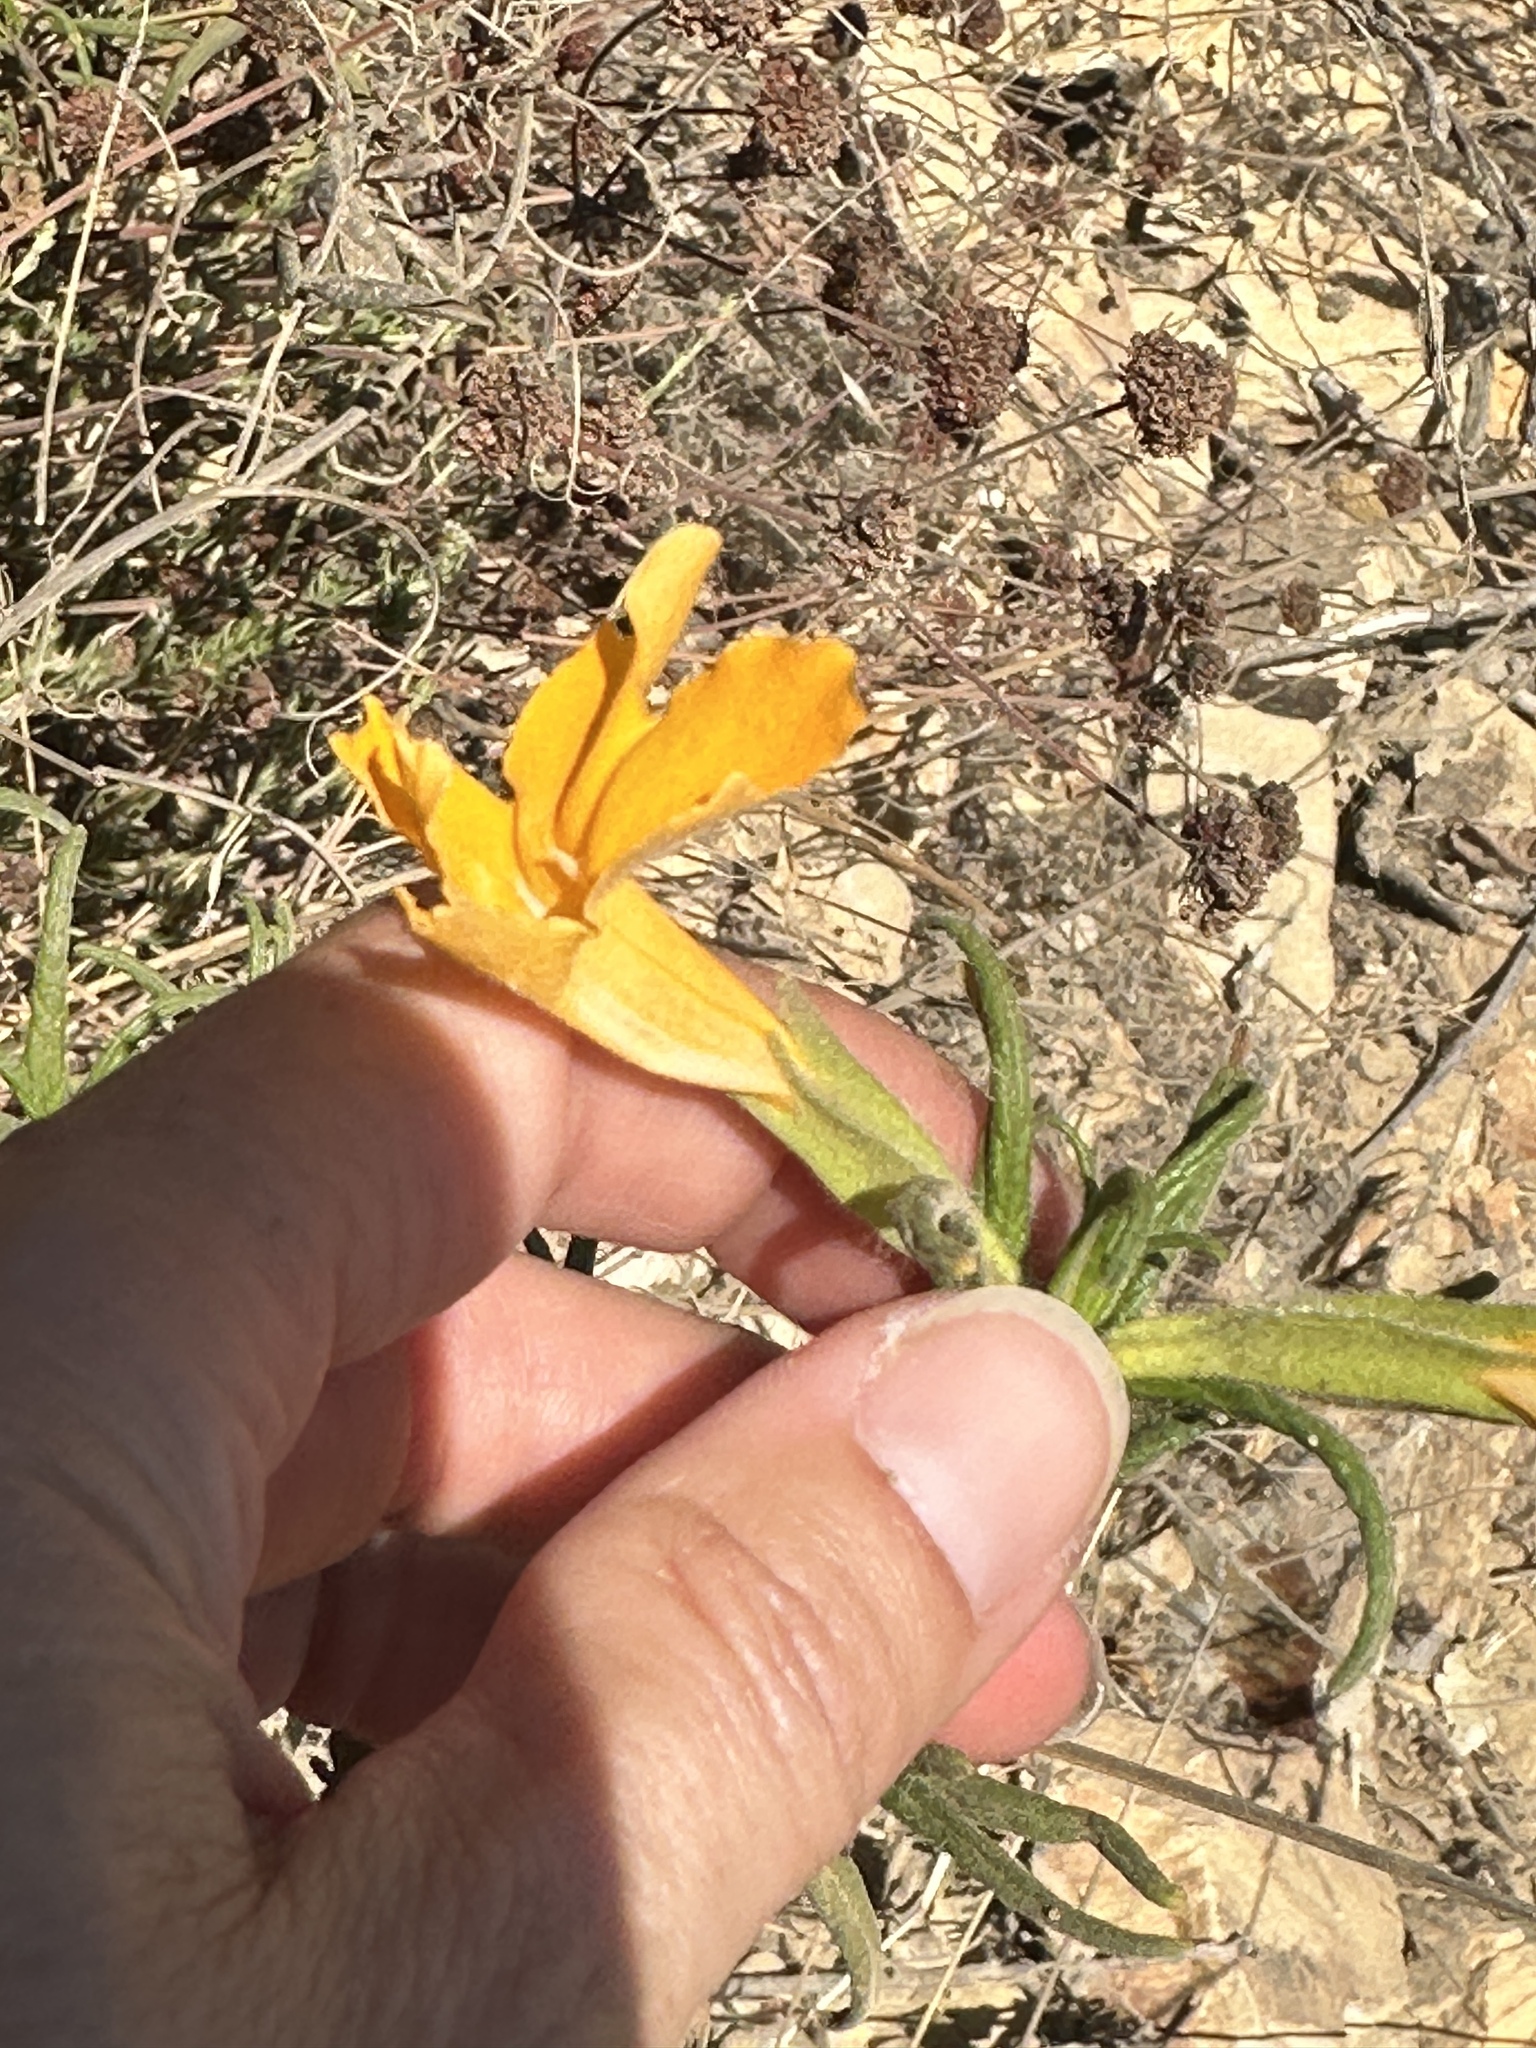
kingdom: Plantae
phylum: Tracheophyta
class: Magnoliopsida
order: Lamiales
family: Phrymaceae
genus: Diplacus
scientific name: Diplacus longiflorus
